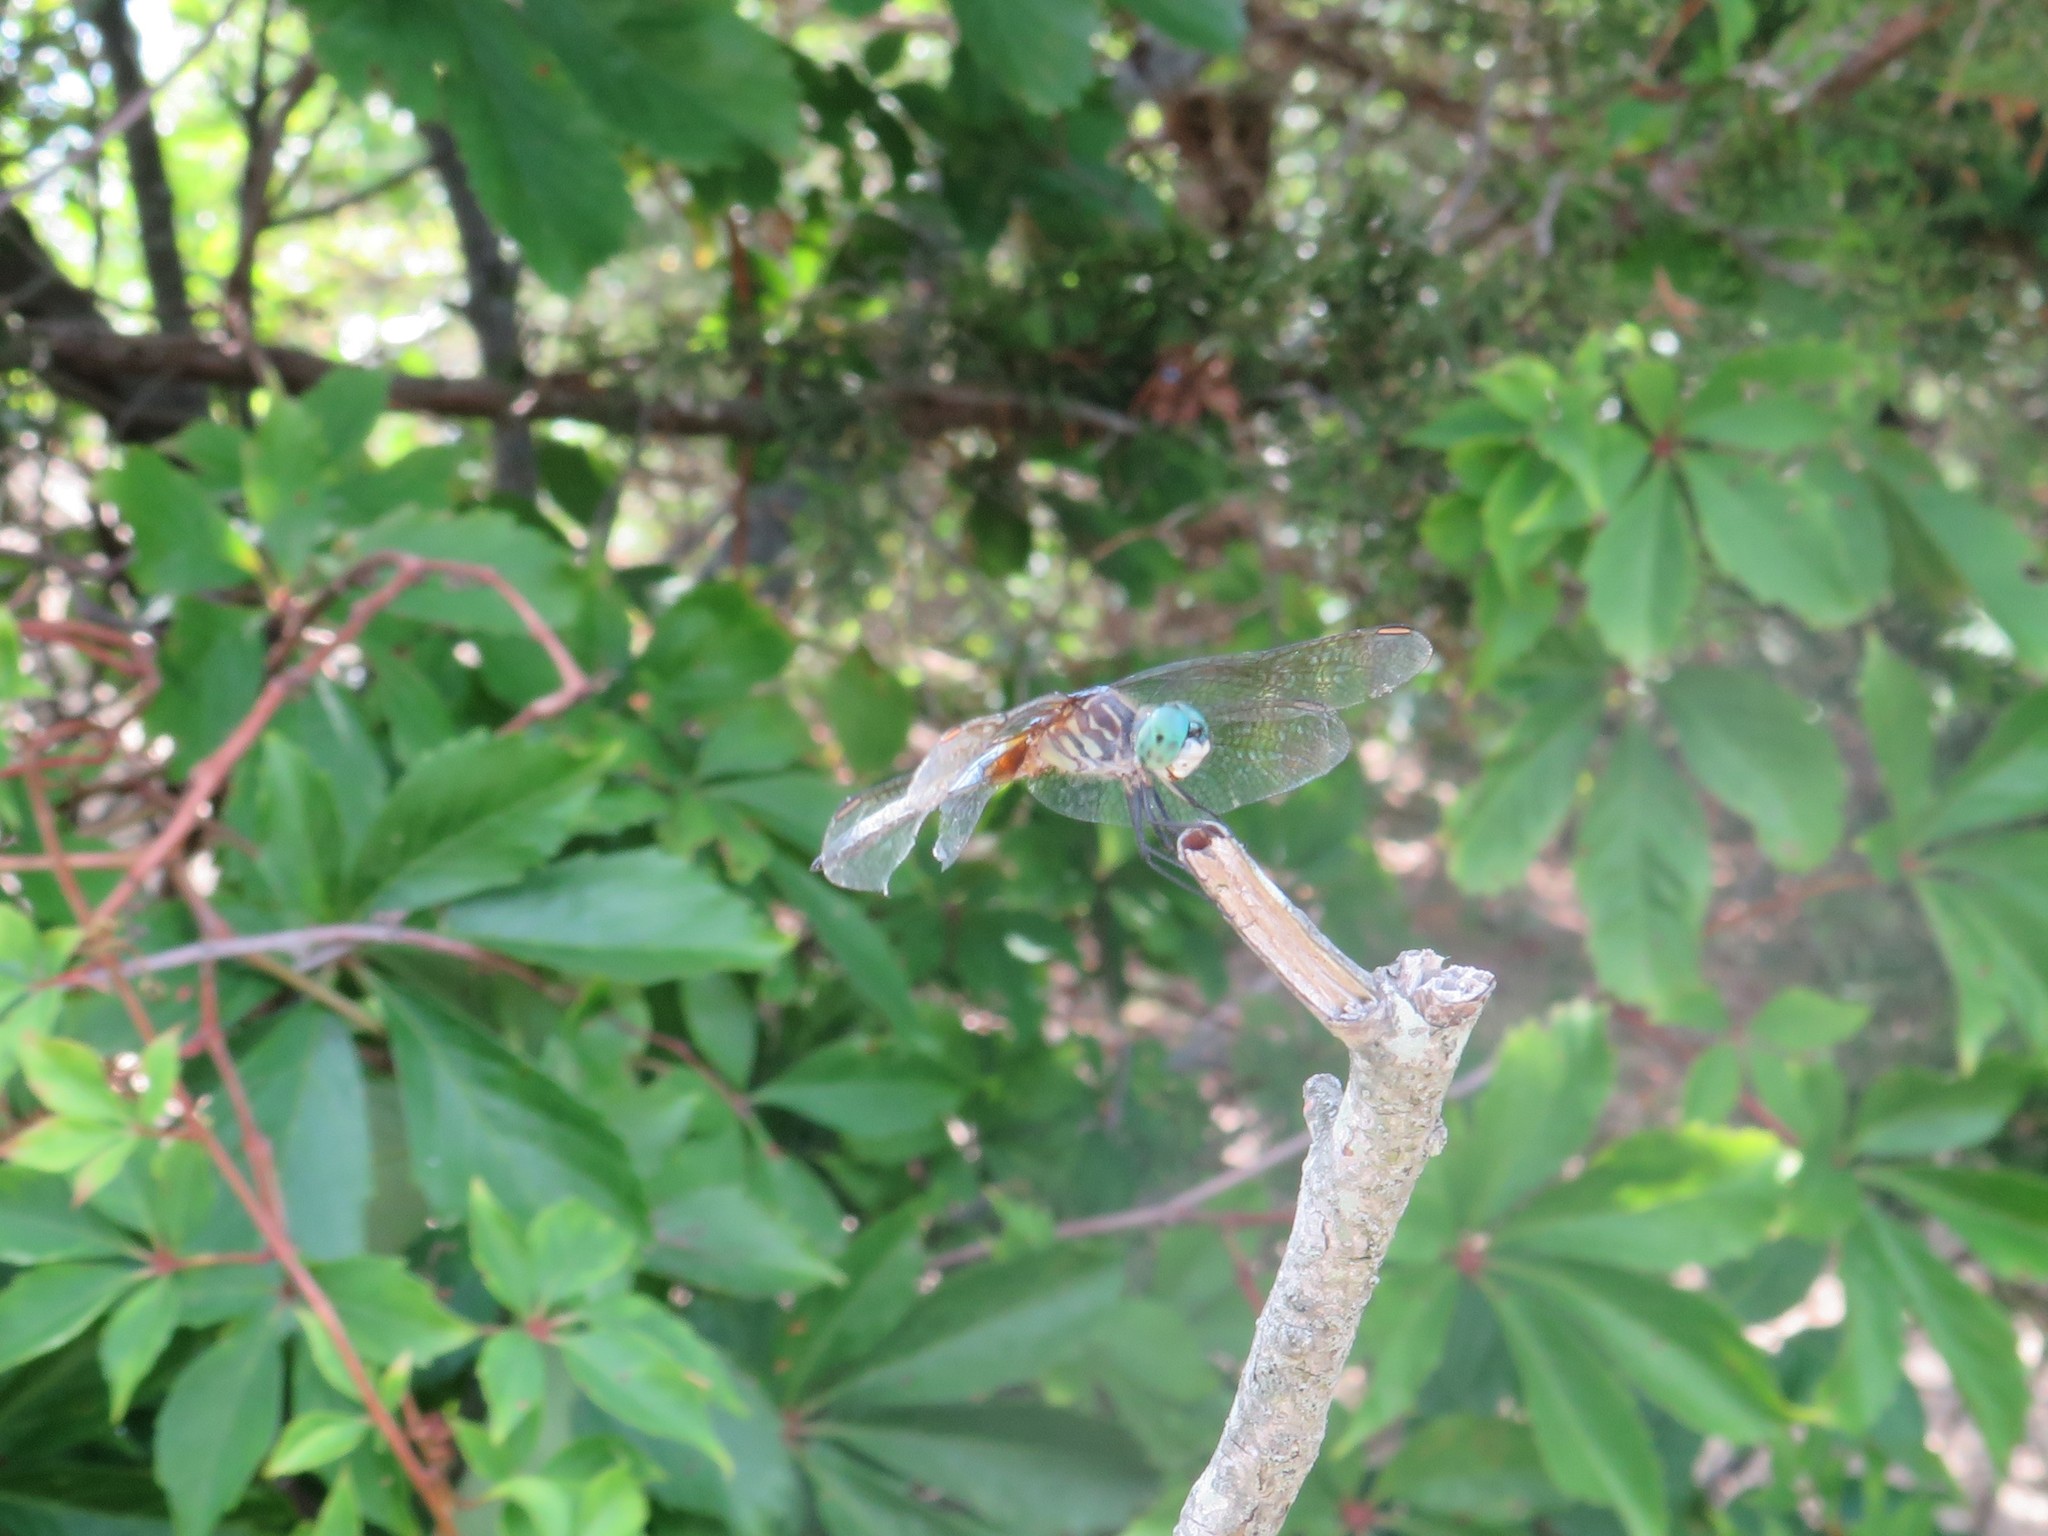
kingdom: Animalia
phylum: Arthropoda
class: Insecta
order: Odonata
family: Libellulidae
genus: Pachydiplax
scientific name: Pachydiplax longipennis
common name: Blue dasher
